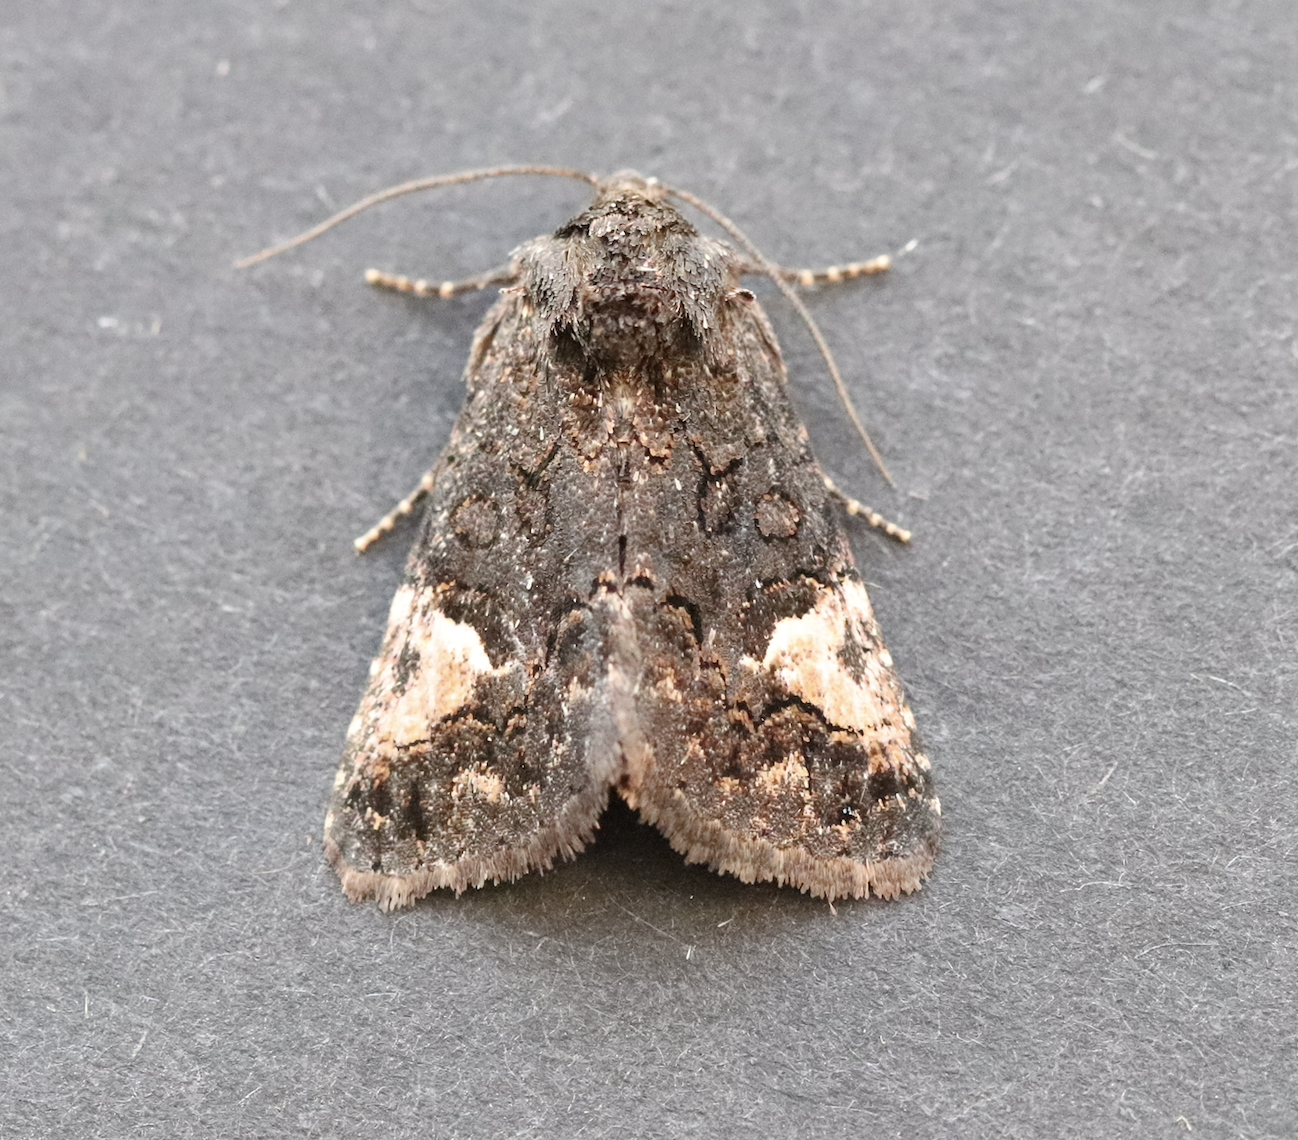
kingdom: Animalia
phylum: Arthropoda
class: Insecta
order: Lepidoptera
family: Noctuidae
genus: Aedia
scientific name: Aedia funesta
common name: The druid
